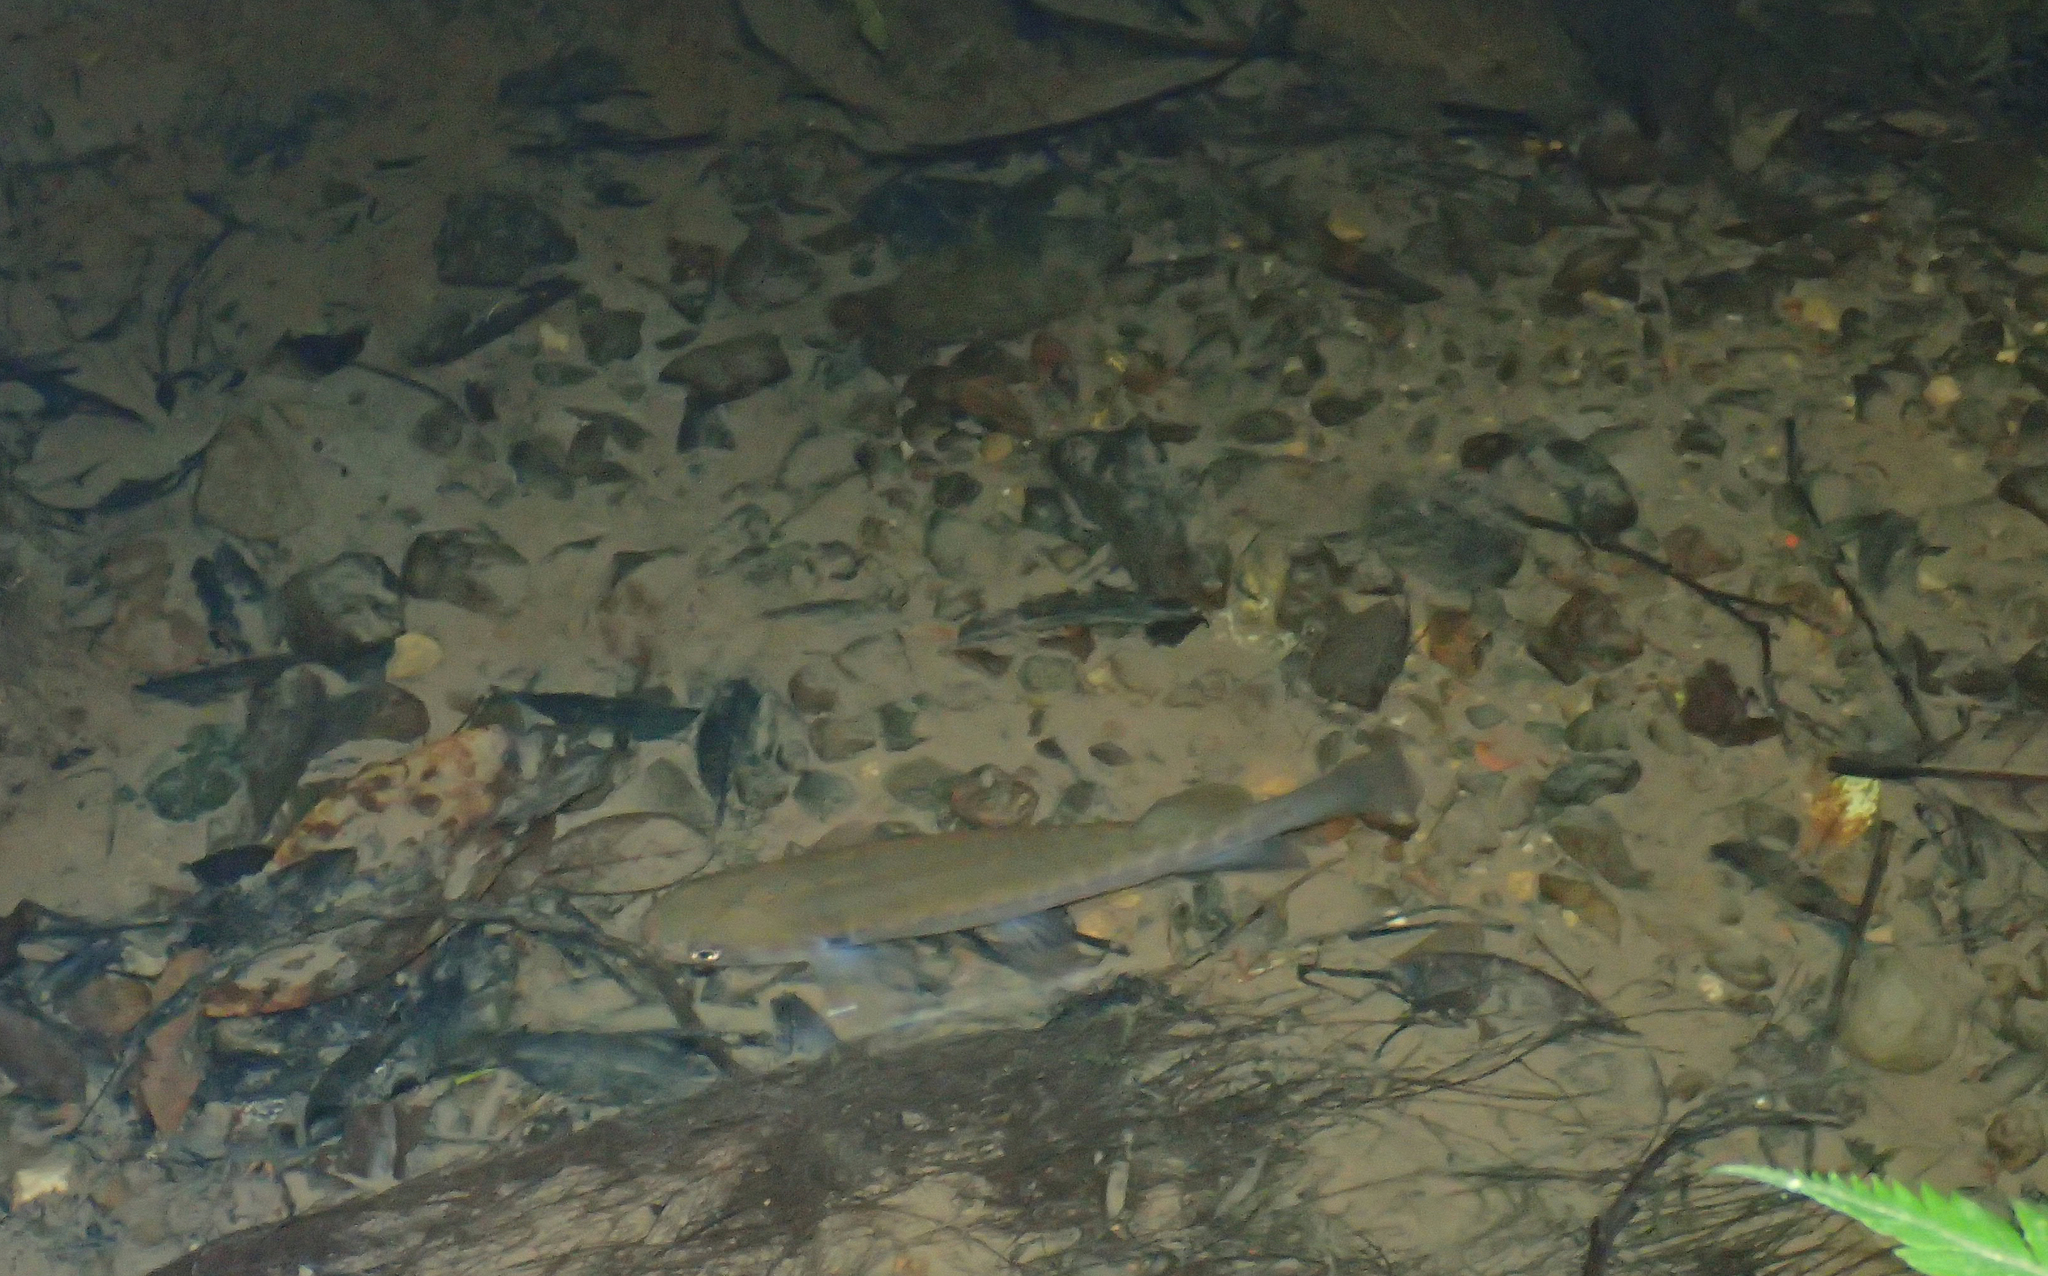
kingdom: Animalia
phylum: Chordata
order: Osmeriformes
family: Galaxiidae
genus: Galaxias
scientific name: Galaxias fasciatus
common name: Banded kokopu
